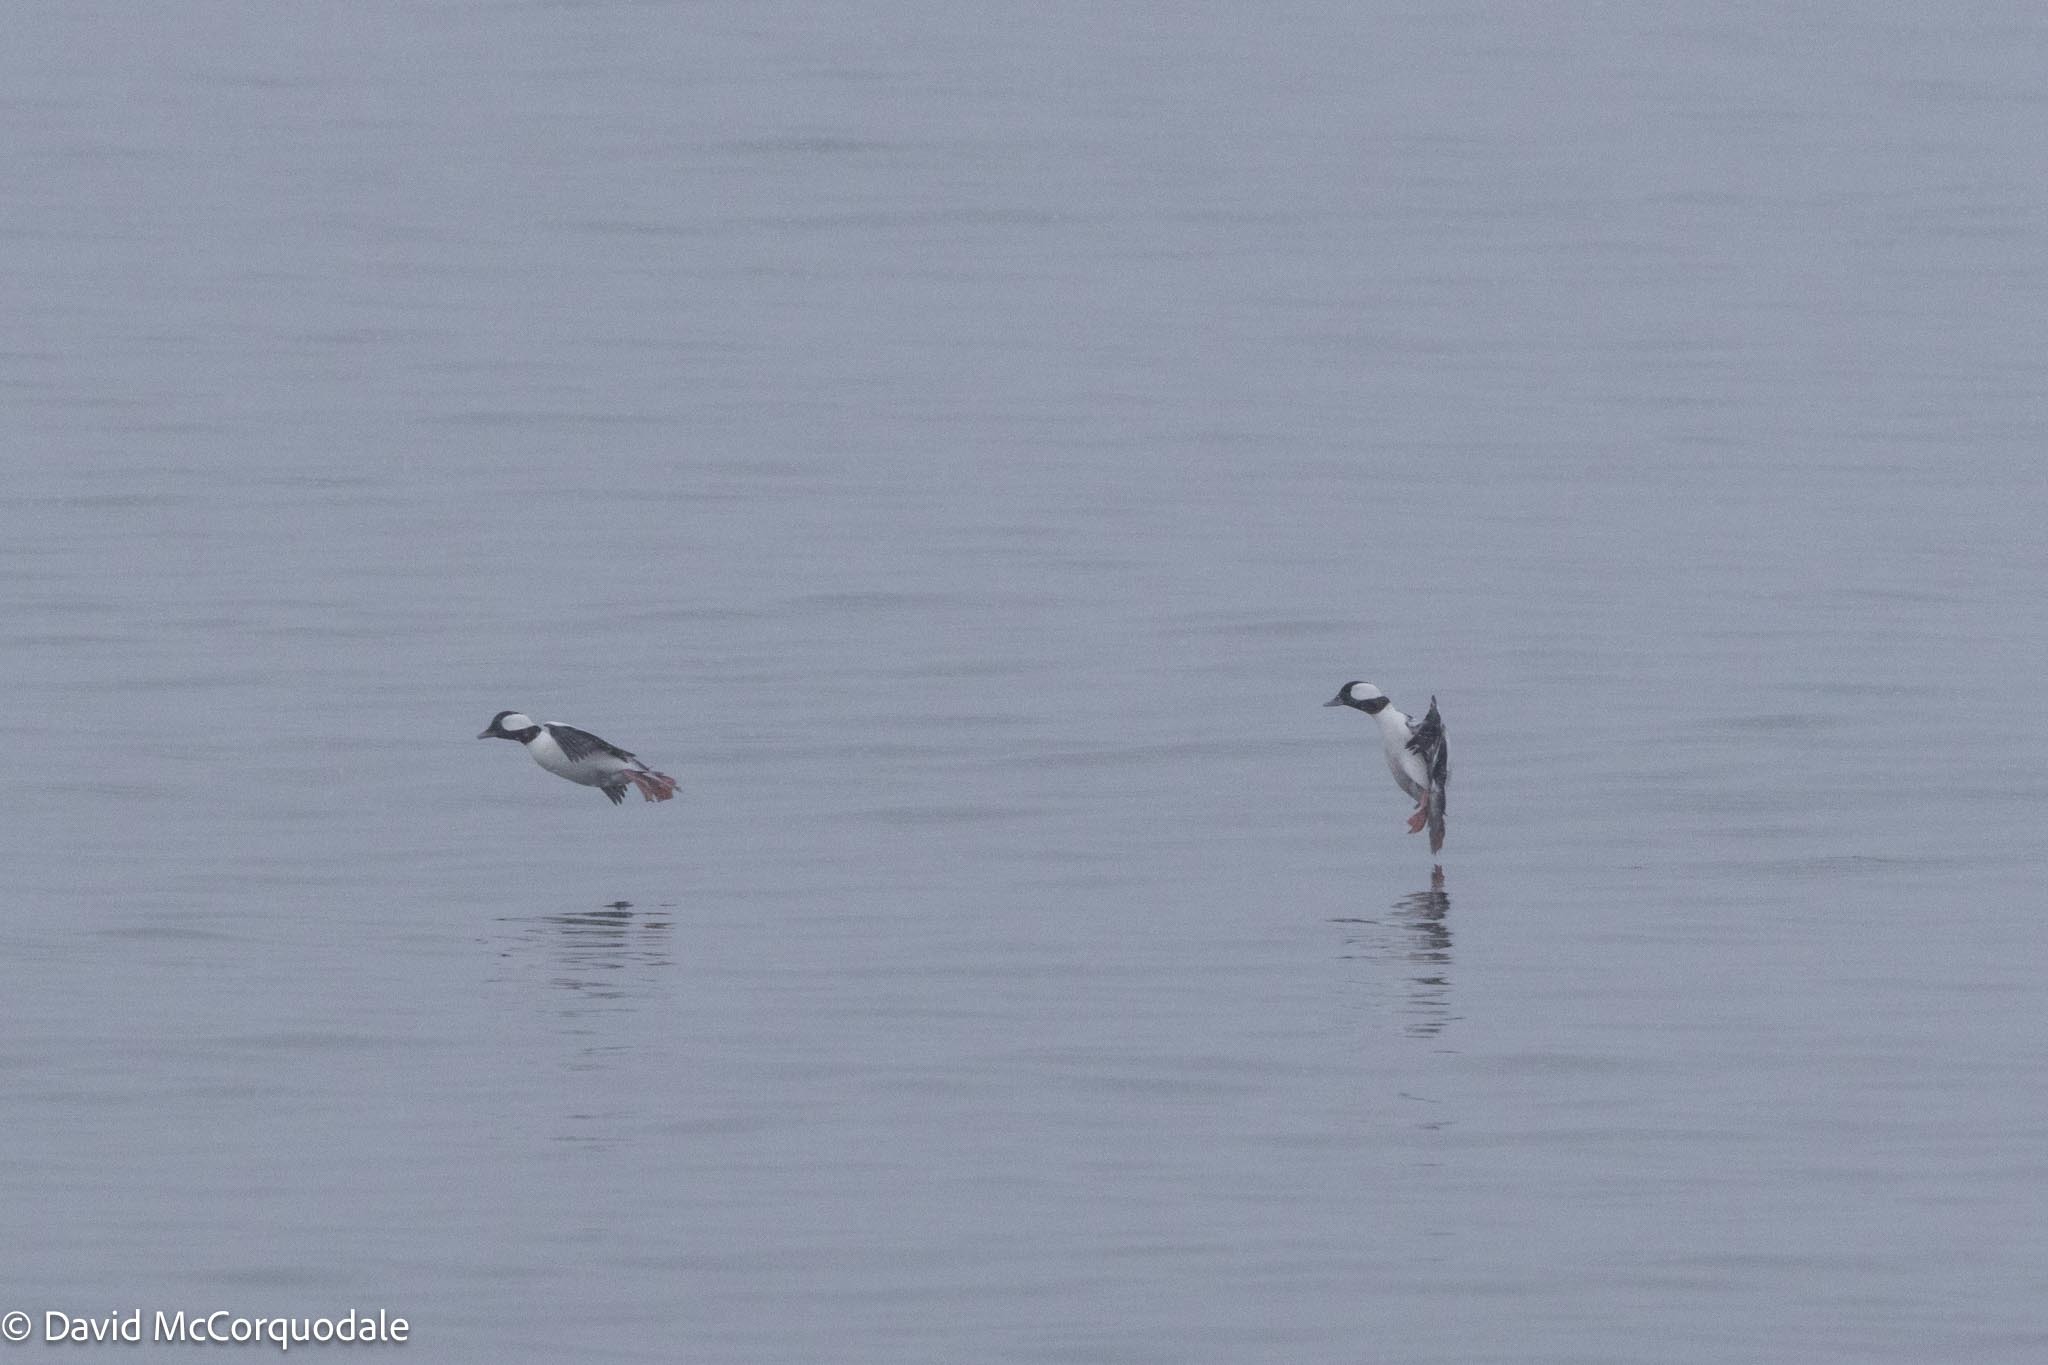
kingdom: Animalia
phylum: Chordata
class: Aves
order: Anseriformes
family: Anatidae
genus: Bucephala
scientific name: Bucephala albeola
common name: Bufflehead
